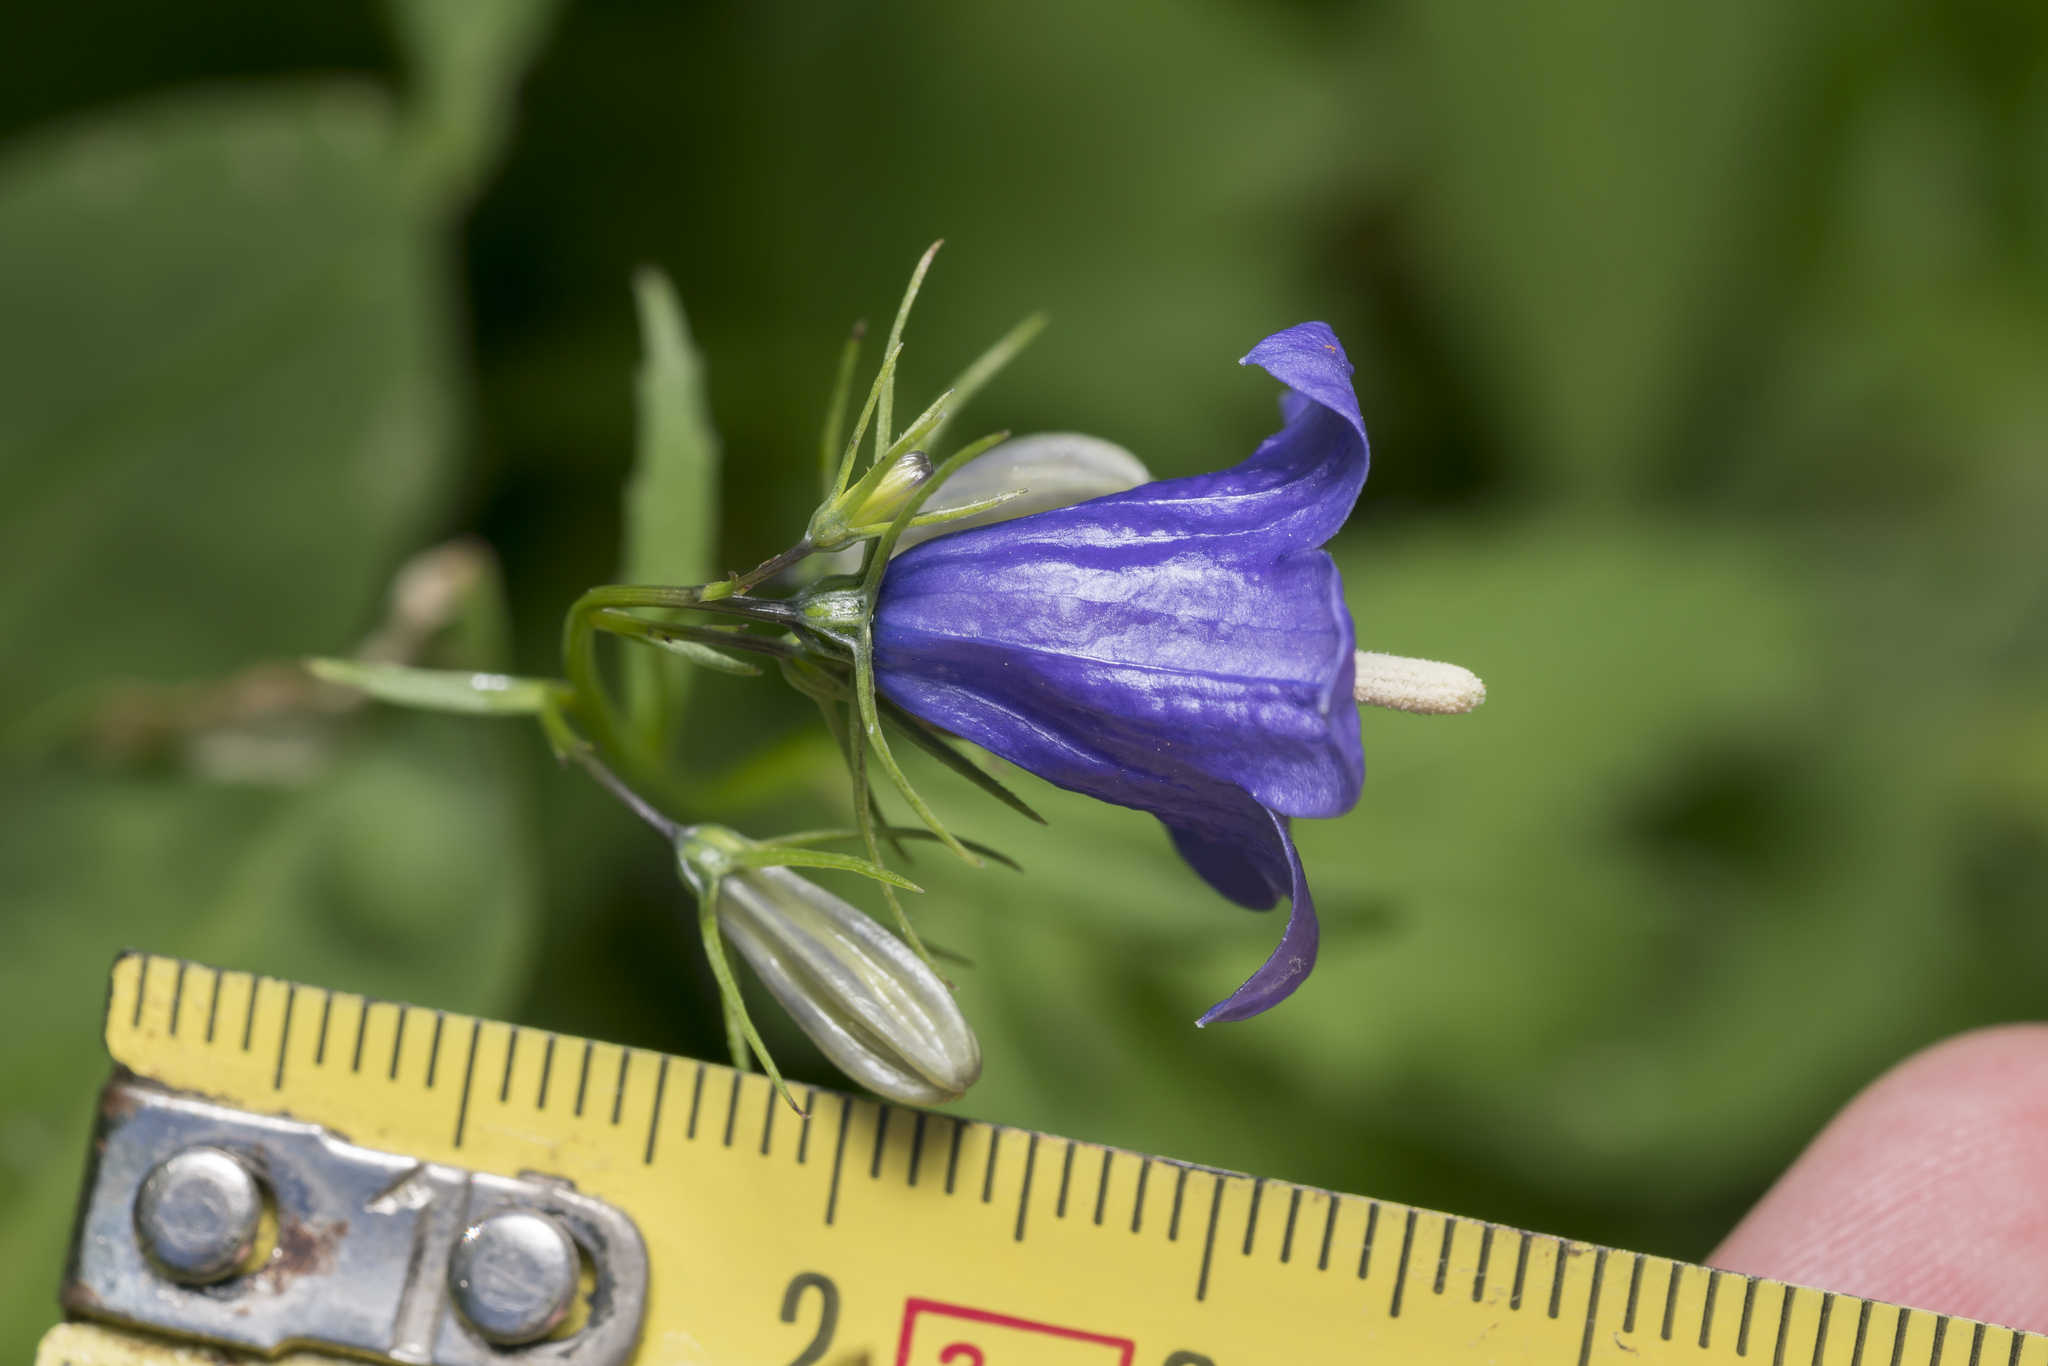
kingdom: Plantae
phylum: Tracheophyta
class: Magnoliopsida
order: Asterales
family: Campanulaceae
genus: Campanula
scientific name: Campanula rhomboidalis
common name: Broad-leaved harebell
